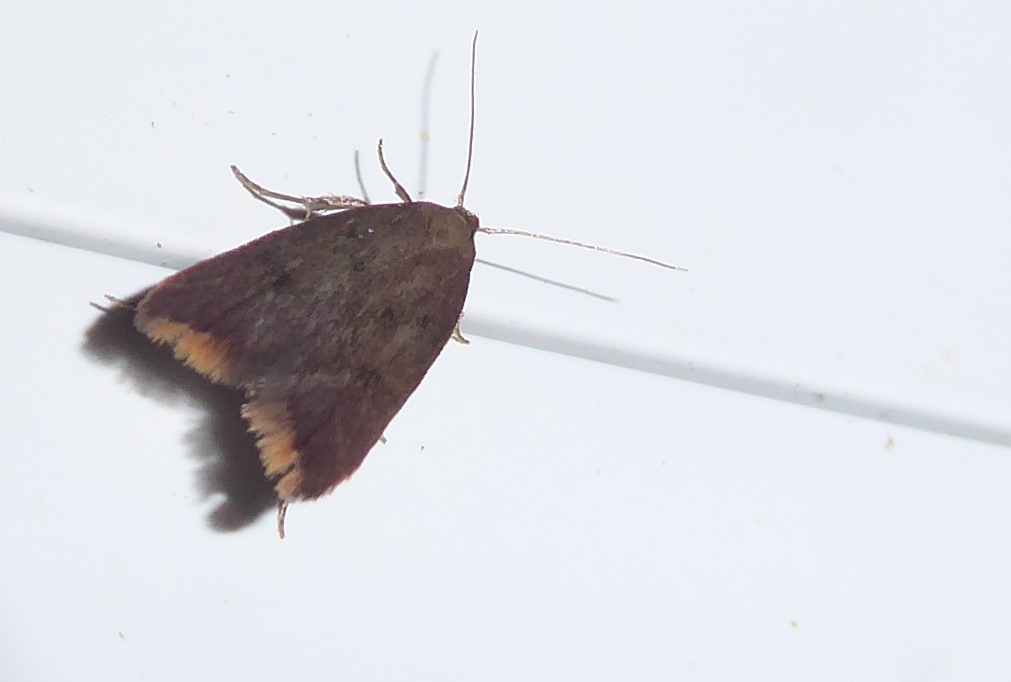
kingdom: Animalia
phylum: Arthropoda
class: Insecta
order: Lepidoptera
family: Oecophoridae
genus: Tachystola
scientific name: Tachystola acroxantha
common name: Ruddy streak
